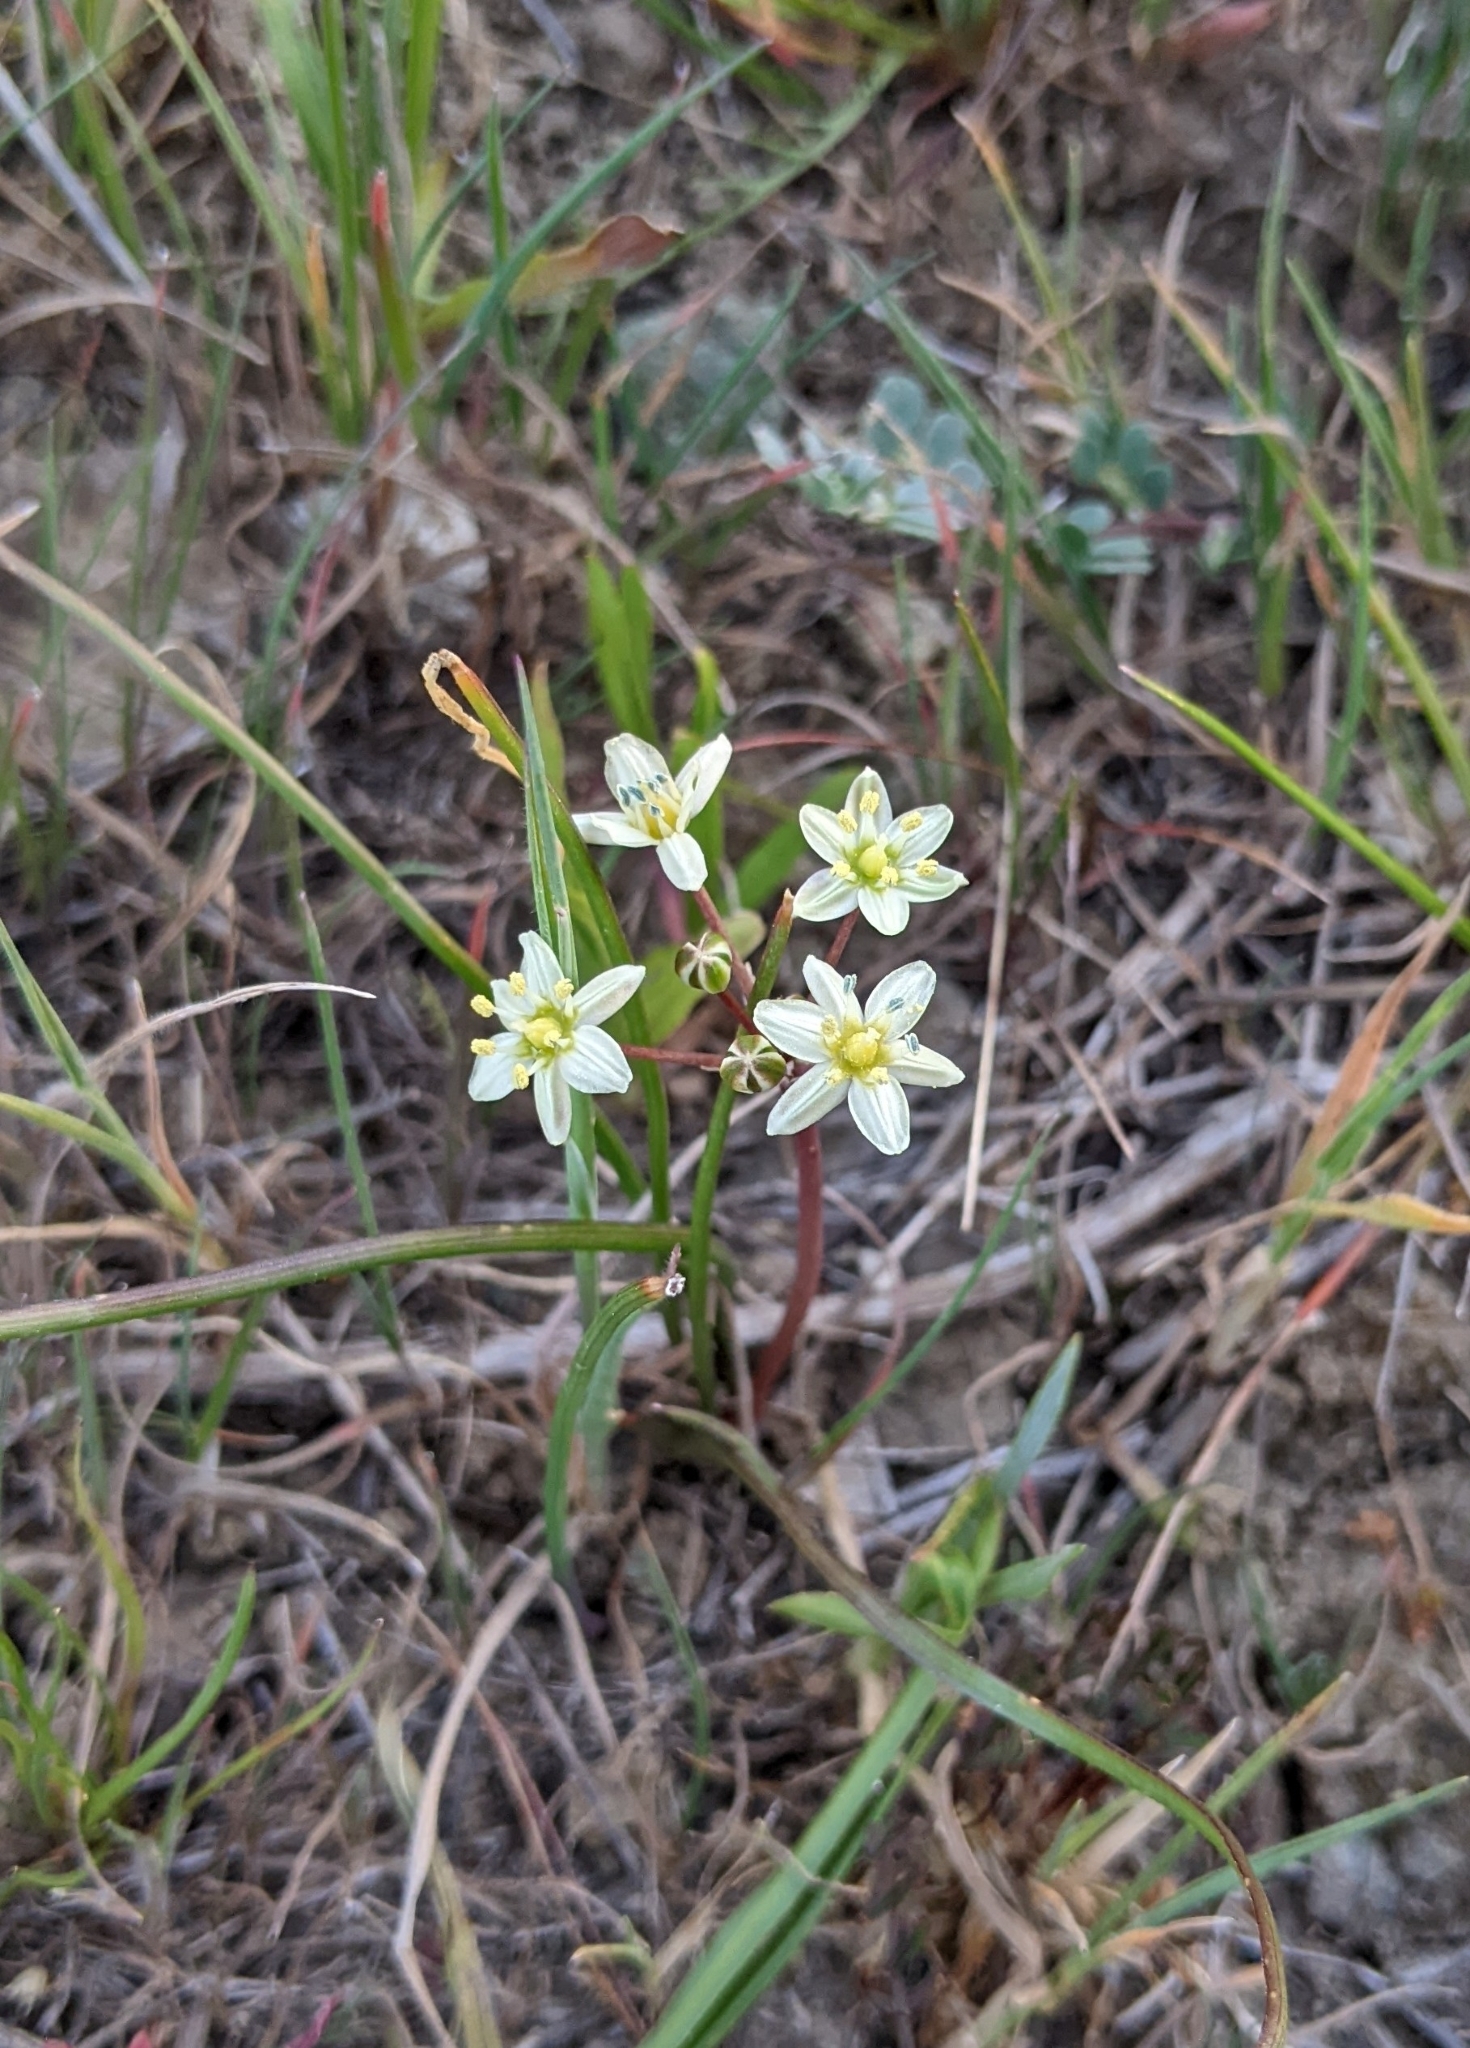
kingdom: Plantae
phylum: Tracheophyta
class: Liliopsida
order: Asparagales
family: Asparagaceae
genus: Muilla
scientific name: Muilla maritima
